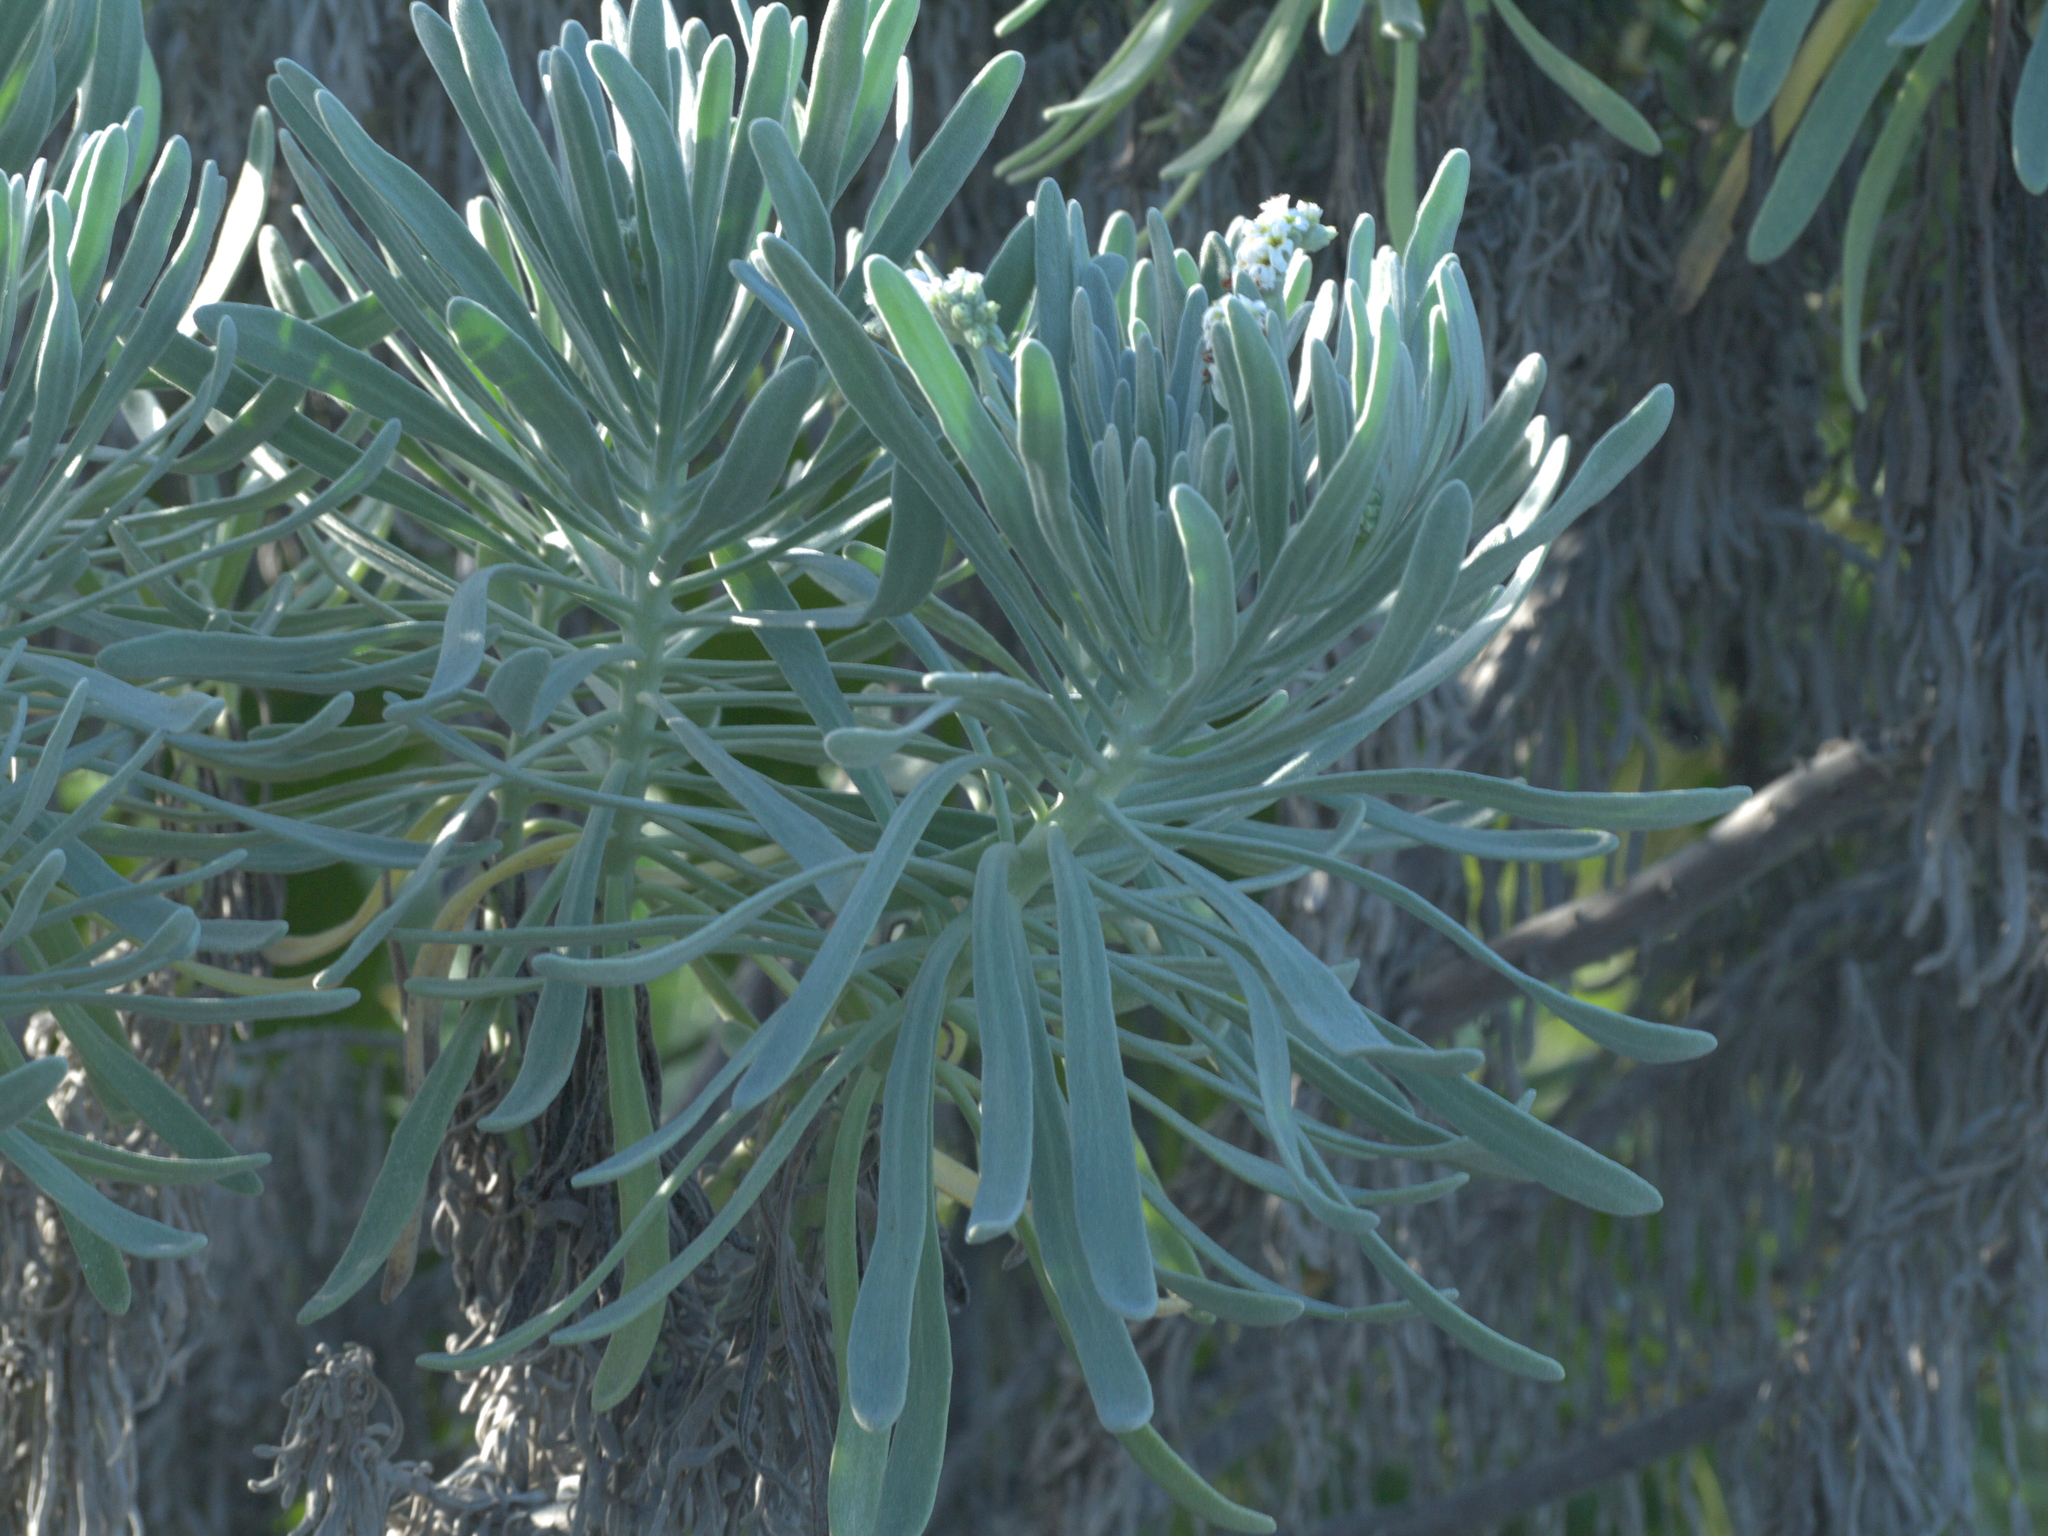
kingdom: Plantae
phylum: Tracheophyta
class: Magnoliopsida
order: Boraginales
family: Heliotropiaceae
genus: Tournefortia
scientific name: Tournefortia gnaphalodes
